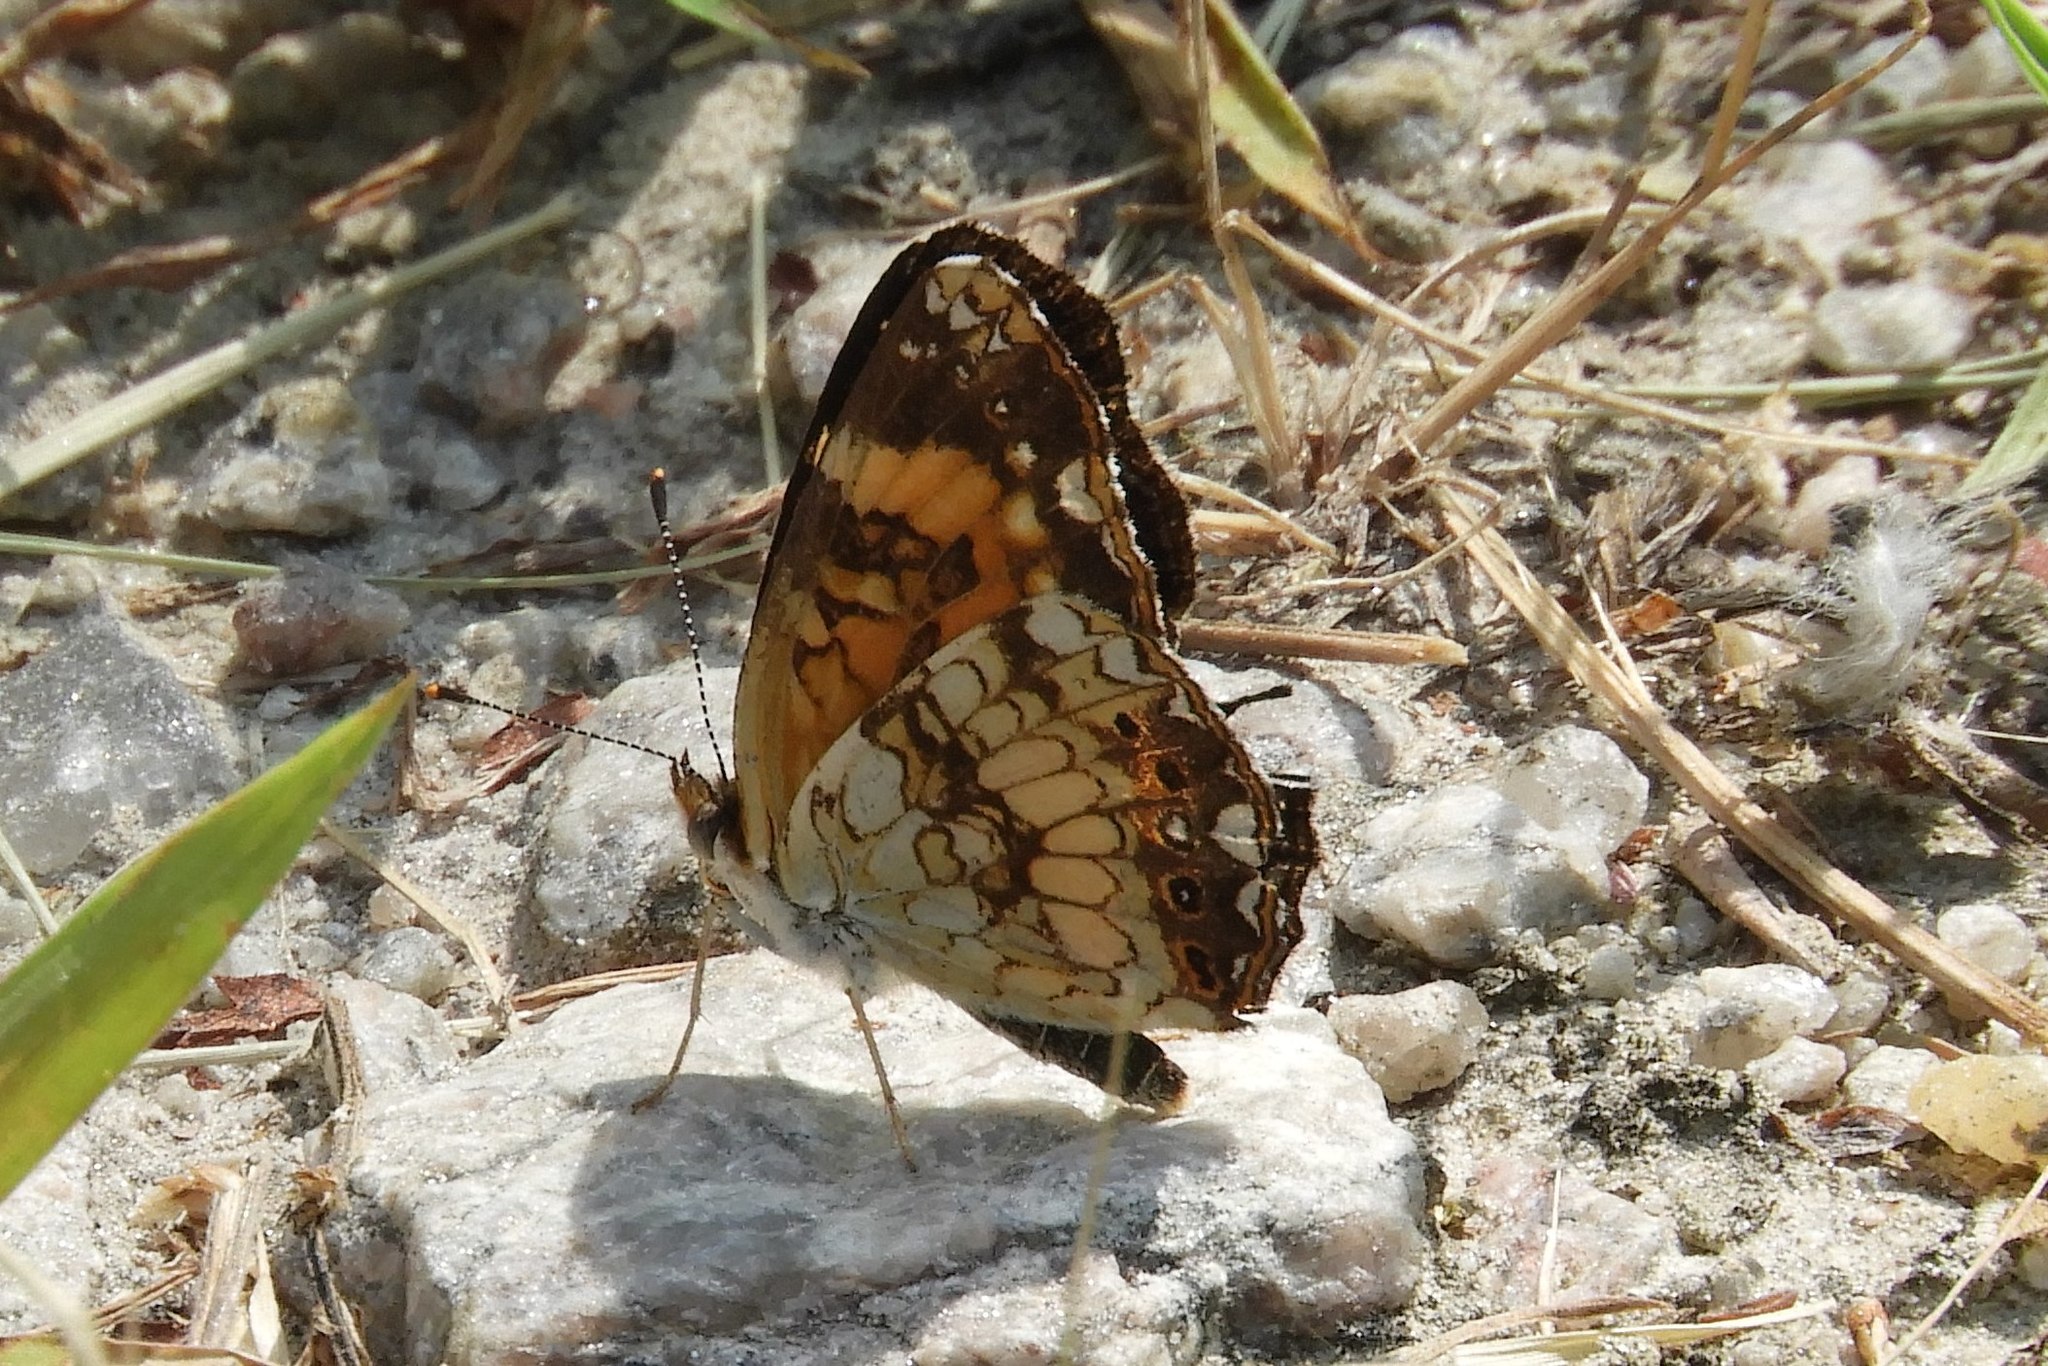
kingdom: Animalia
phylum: Arthropoda
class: Insecta
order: Lepidoptera
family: Nymphalidae
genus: Chlosyne
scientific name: Chlosyne nycteis
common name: Silvery checkerspot
